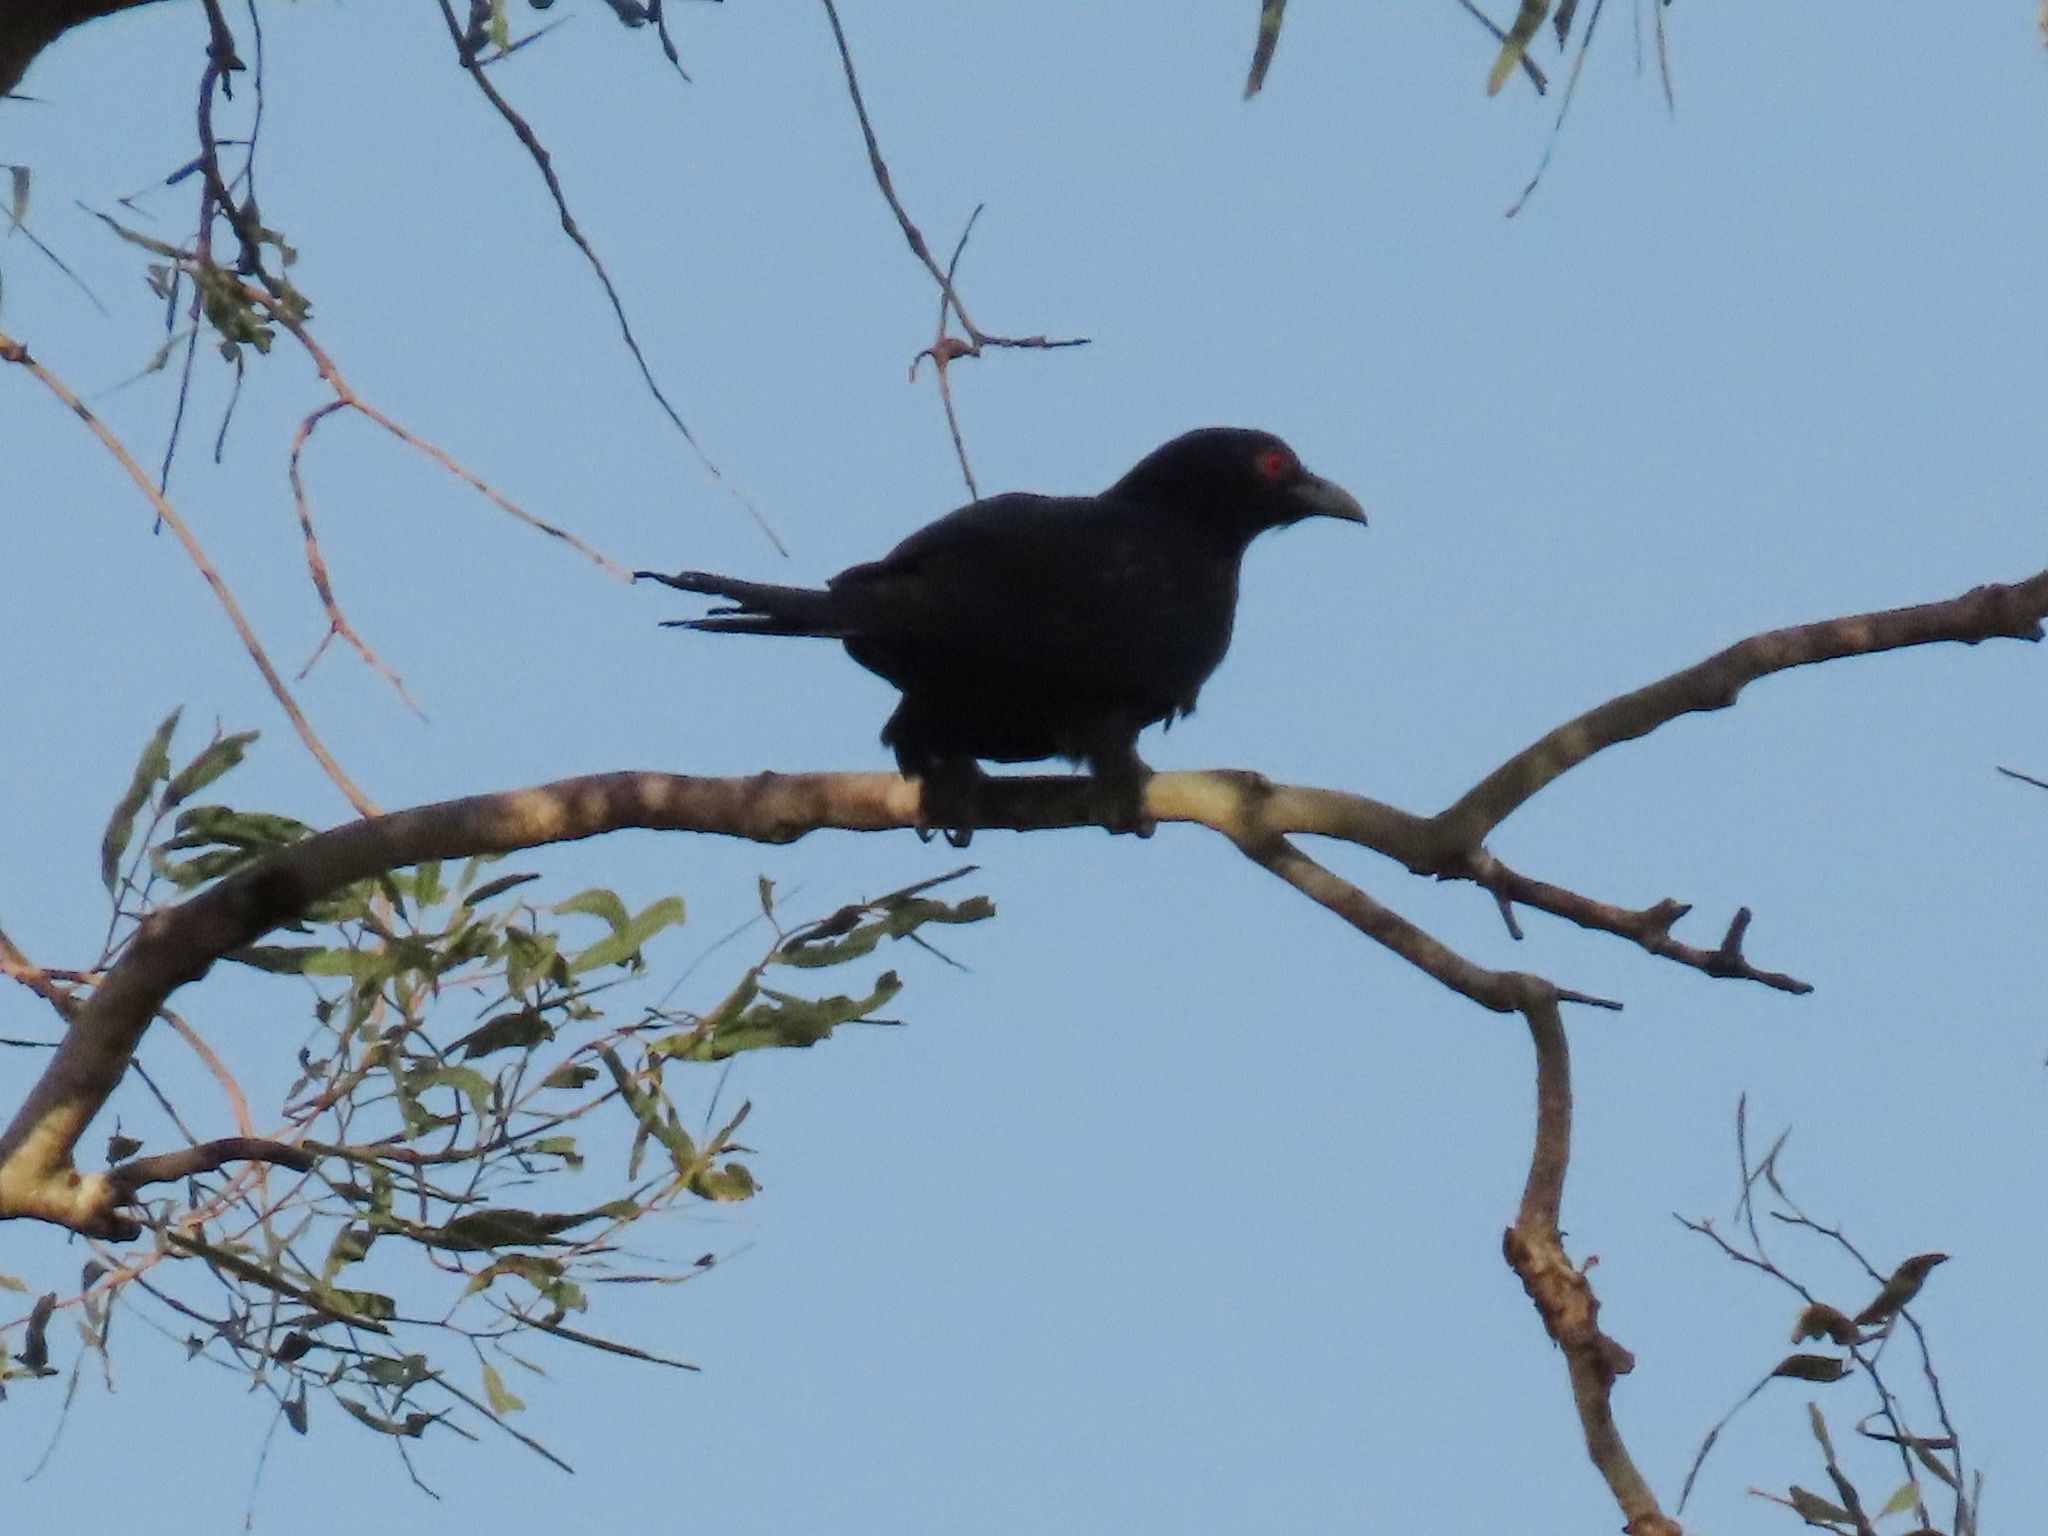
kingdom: Animalia
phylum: Chordata
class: Aves
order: Cuculiformes
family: Cuculidae
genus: Eudynamys
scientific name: Eudynamys orientalis
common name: Pacific koel
